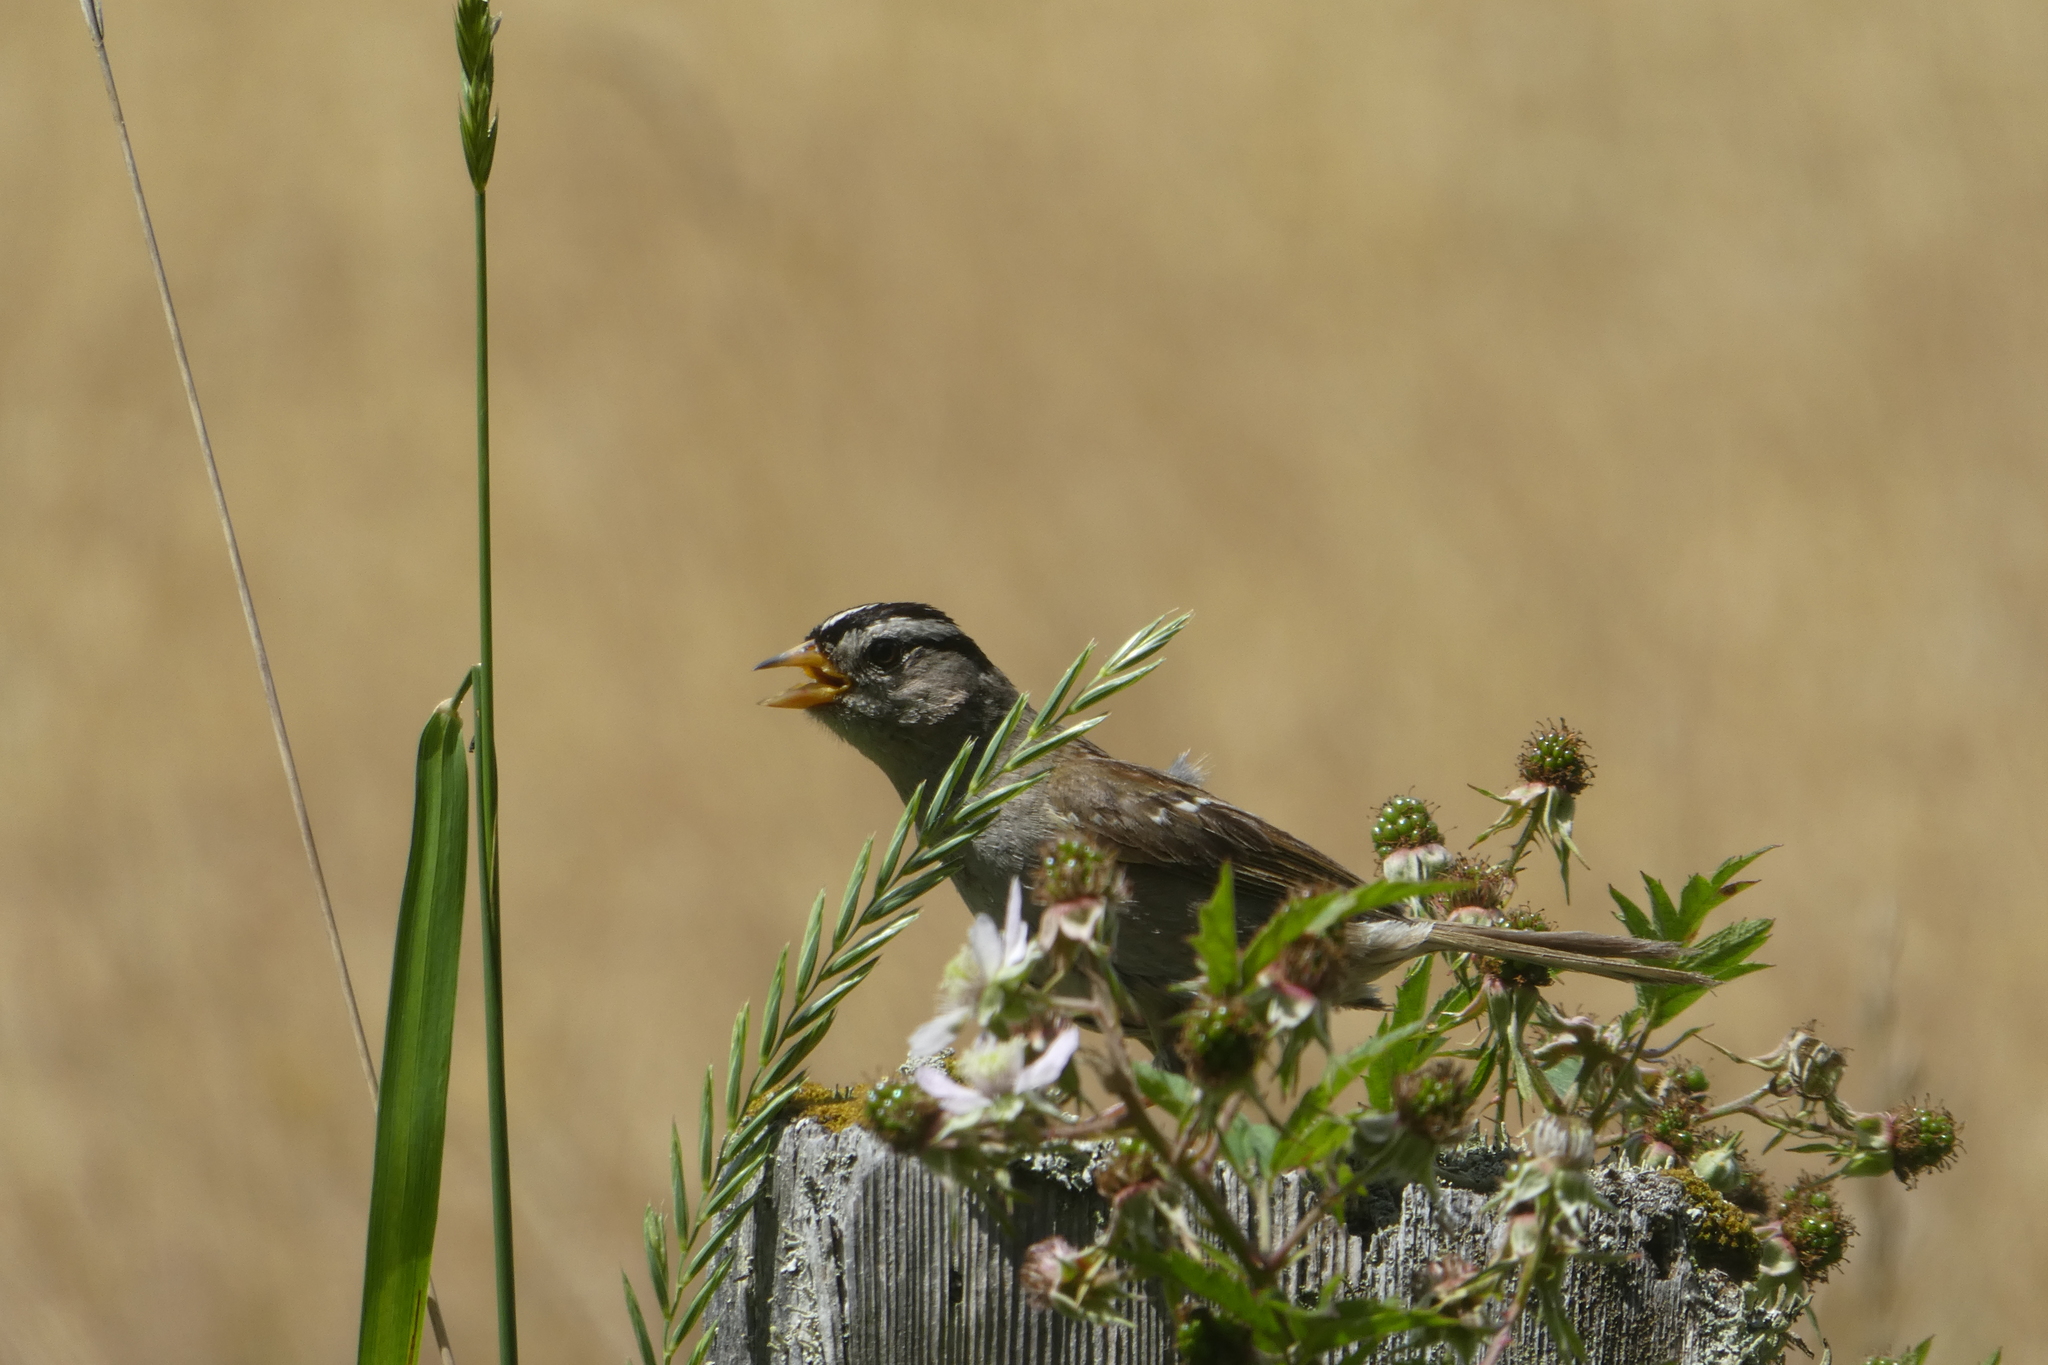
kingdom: Animalia
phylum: Chordata
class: Aves
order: Passeriformes
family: Passerellidae
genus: Zonotrichia
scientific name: Zonotrichia leucophrys
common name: White-crowned sparrow
